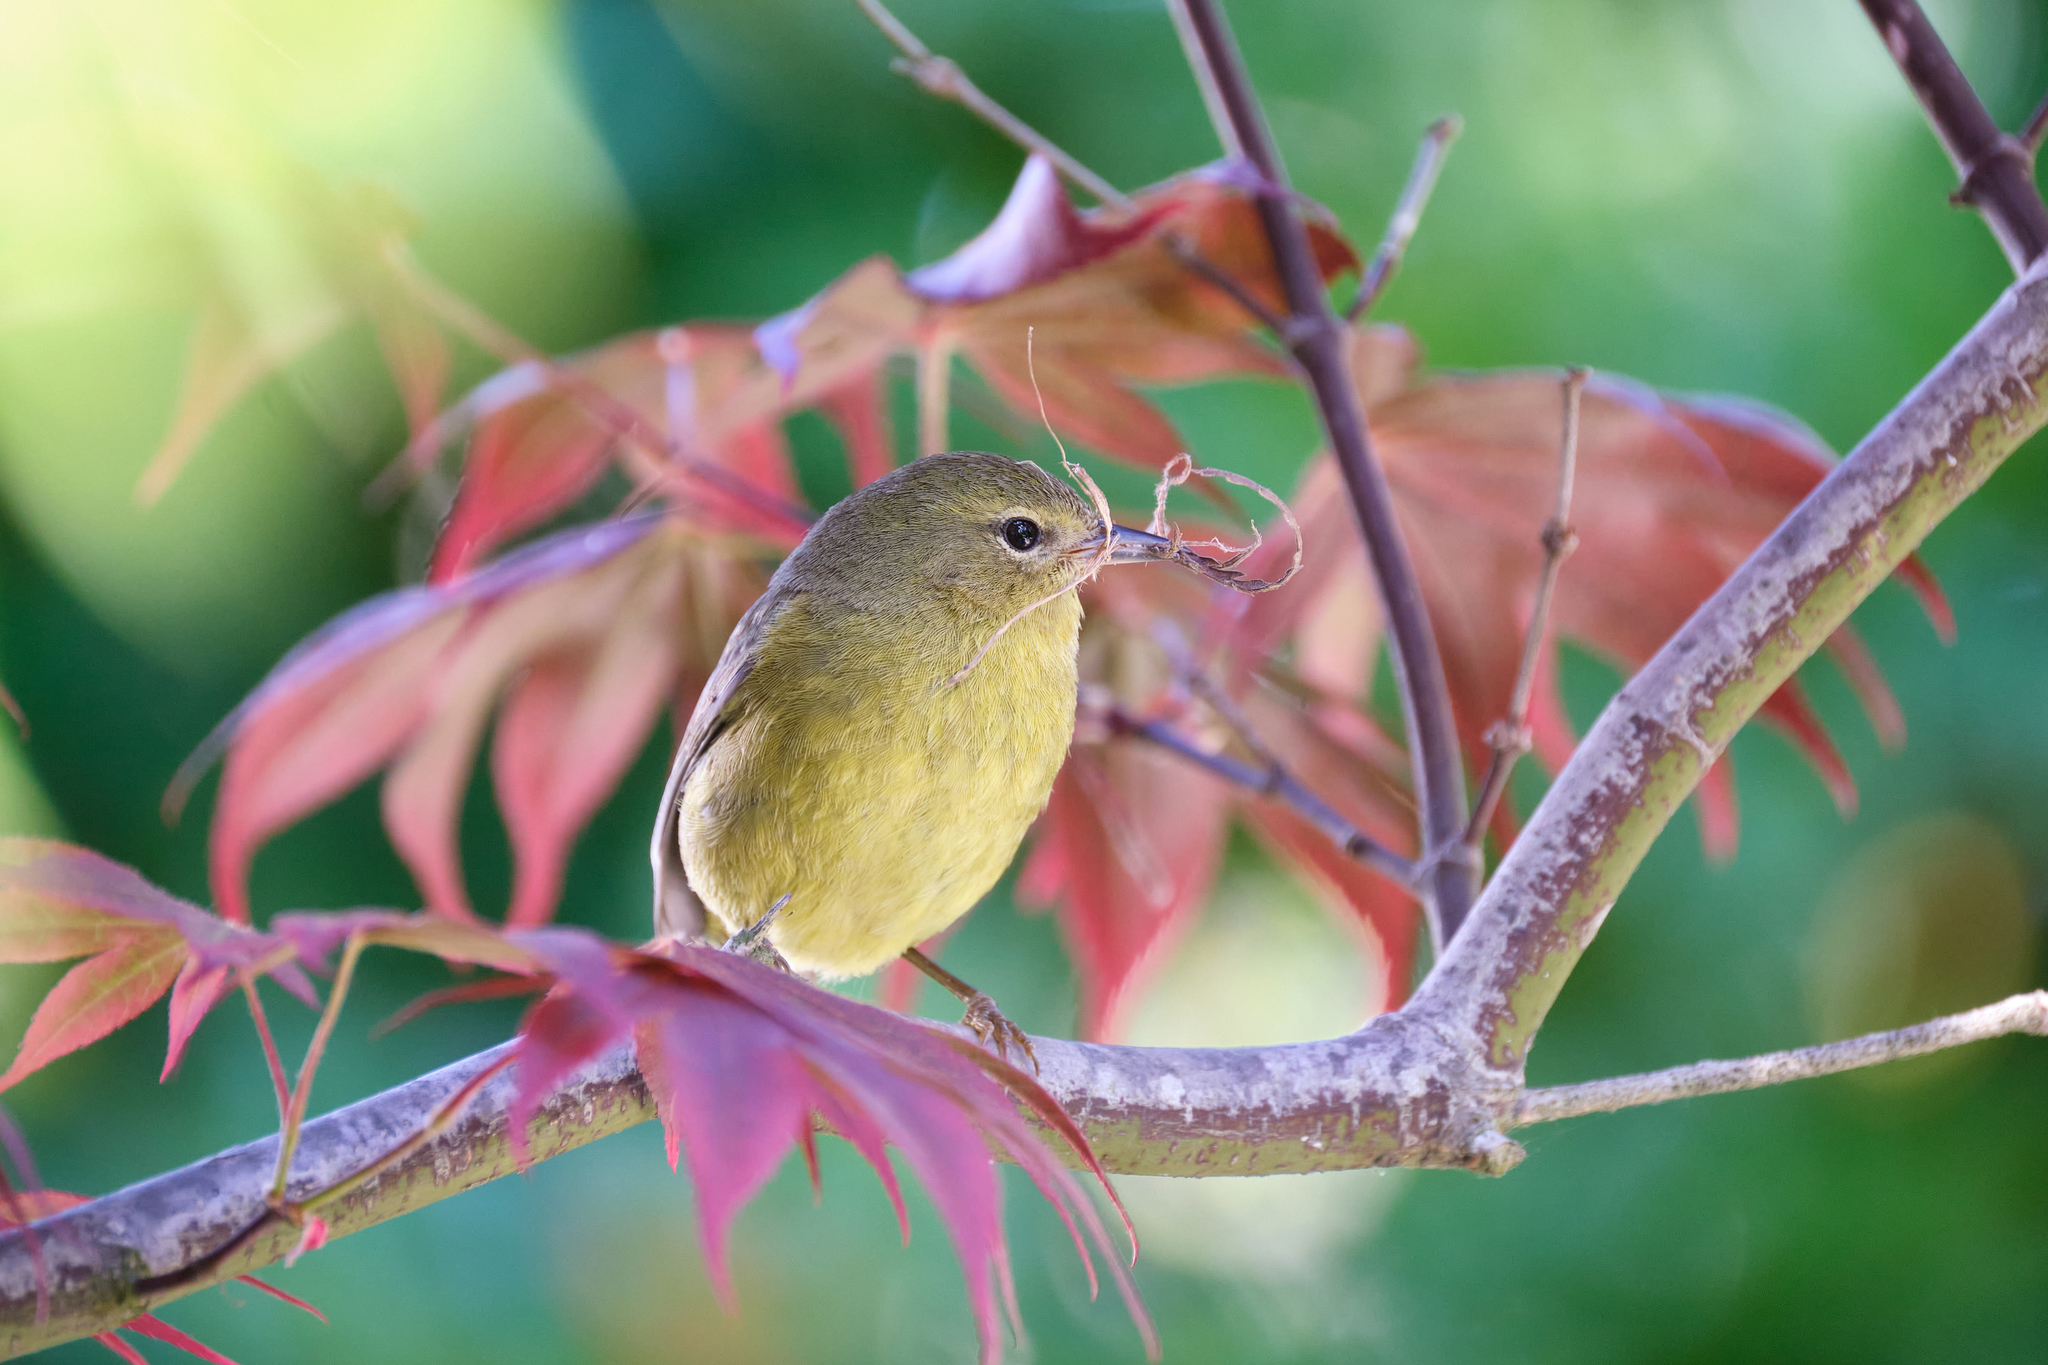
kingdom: Animalia
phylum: Chordata
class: Aves
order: Passeriformes
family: Parulidae
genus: Leiothlypis
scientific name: Leiothlypis celata
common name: Orange-crowned warbler
